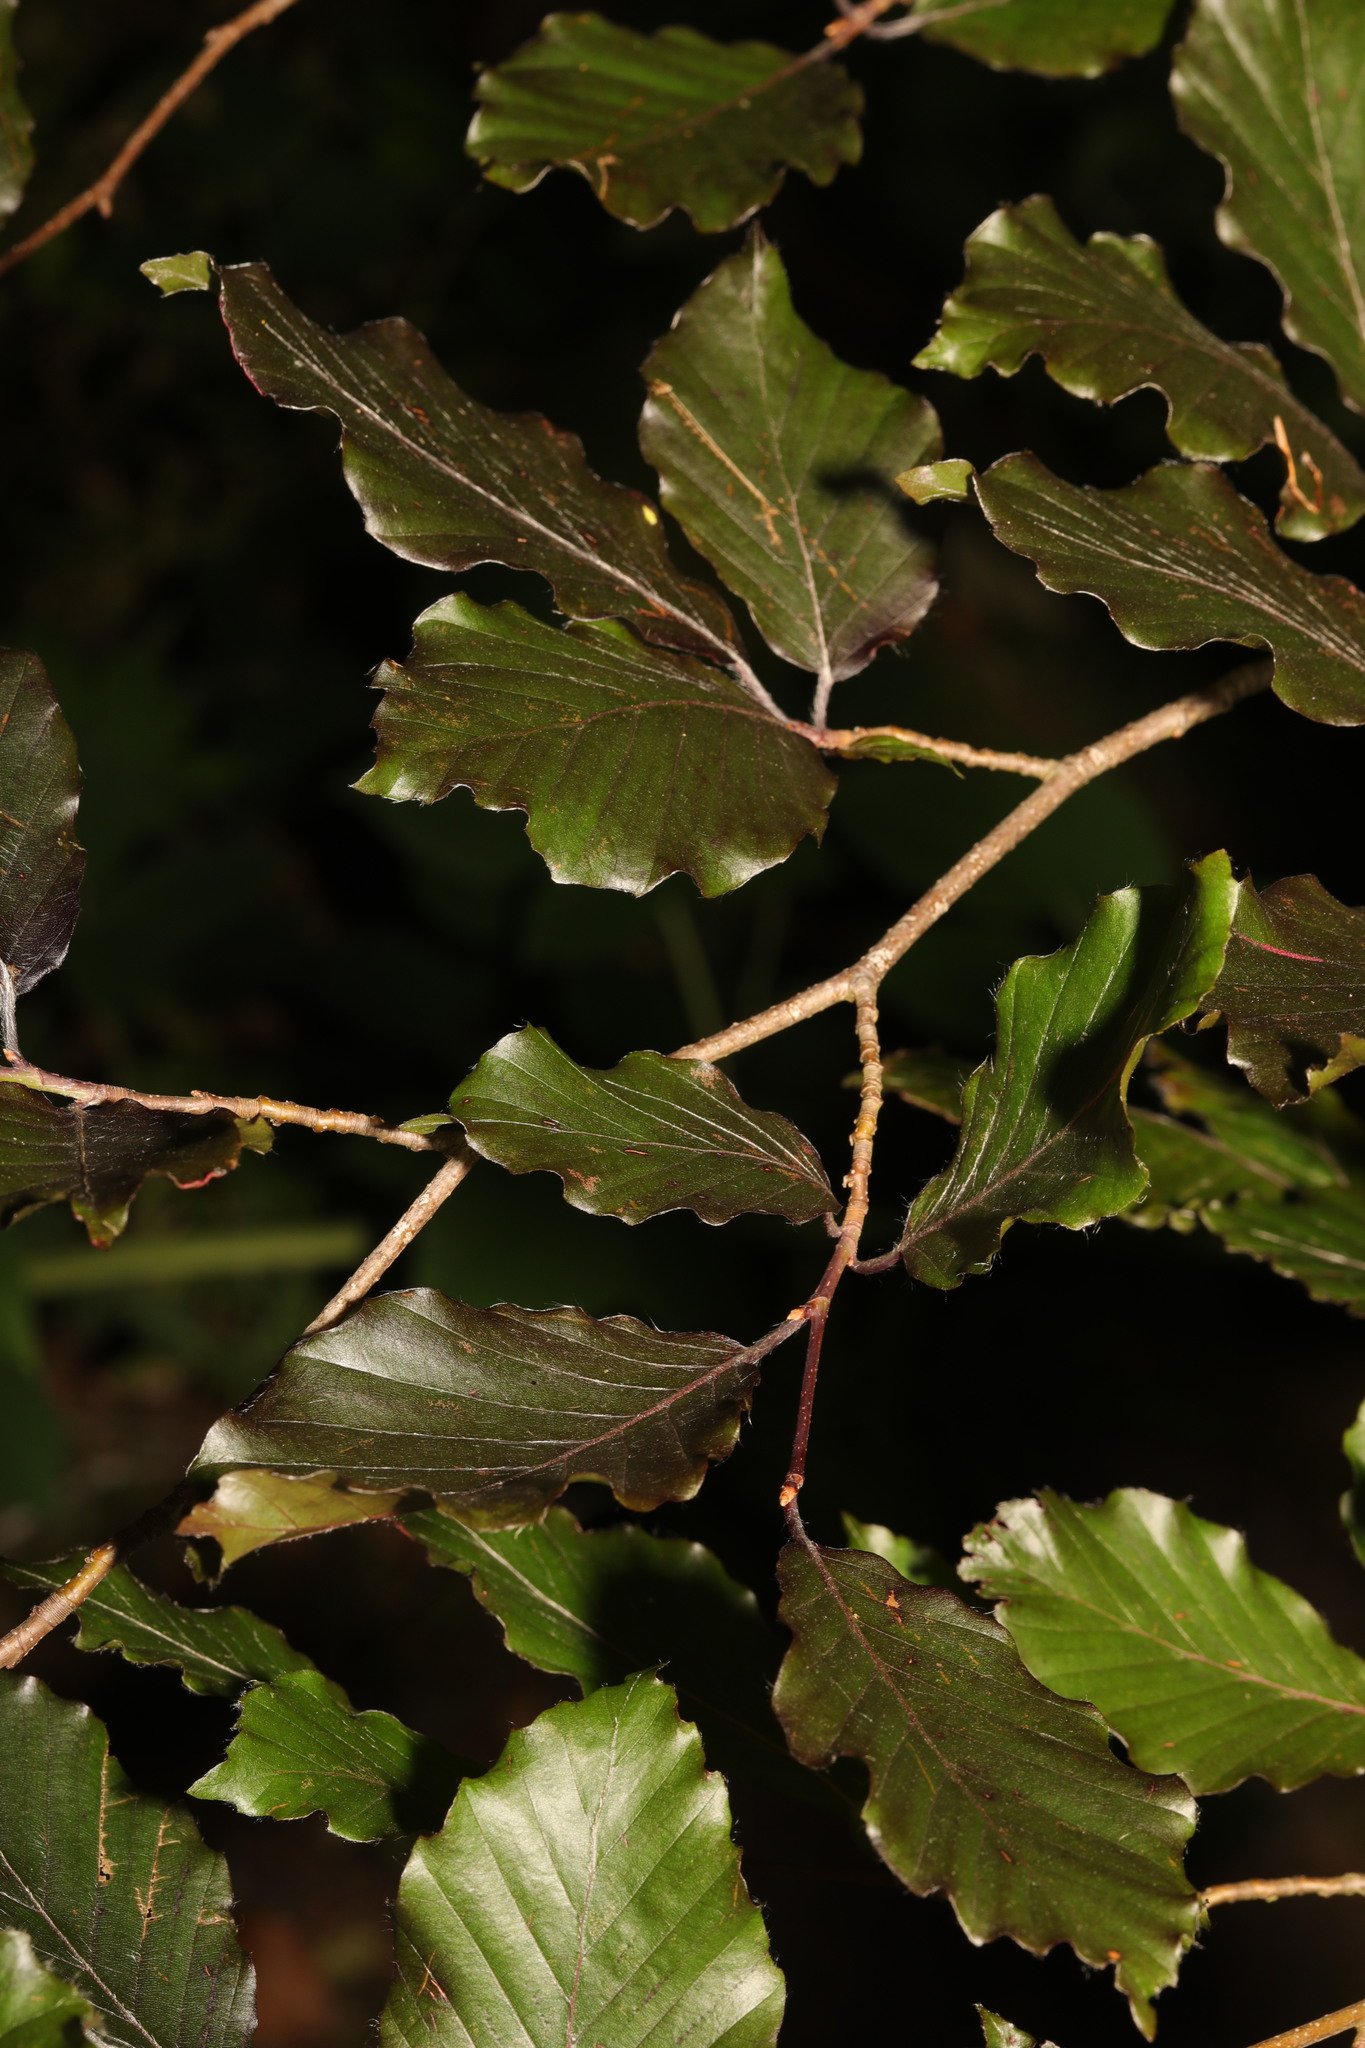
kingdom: Plantae
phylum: Tracheophyta
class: Magnoliopsida
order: Fagales
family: Fagaceae
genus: Fagus
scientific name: Fagus sylvatica
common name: Beech
